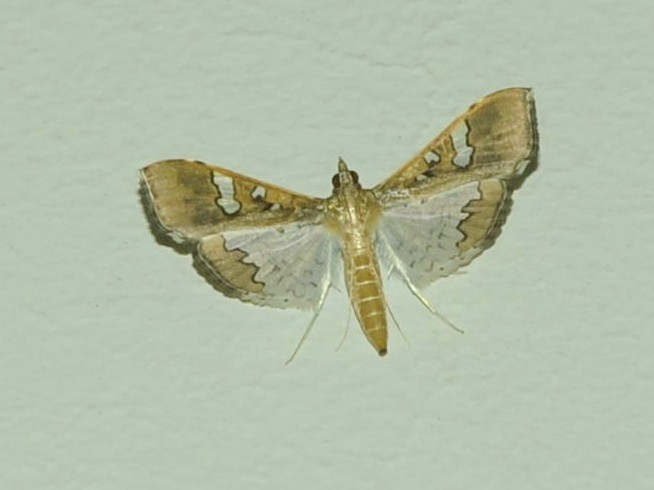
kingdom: Animalia
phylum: Arthropoda
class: Insecta
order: Lepidoptera
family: Crambidae
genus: Maruca
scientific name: Maruca vitrata
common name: Maruca pod borer
